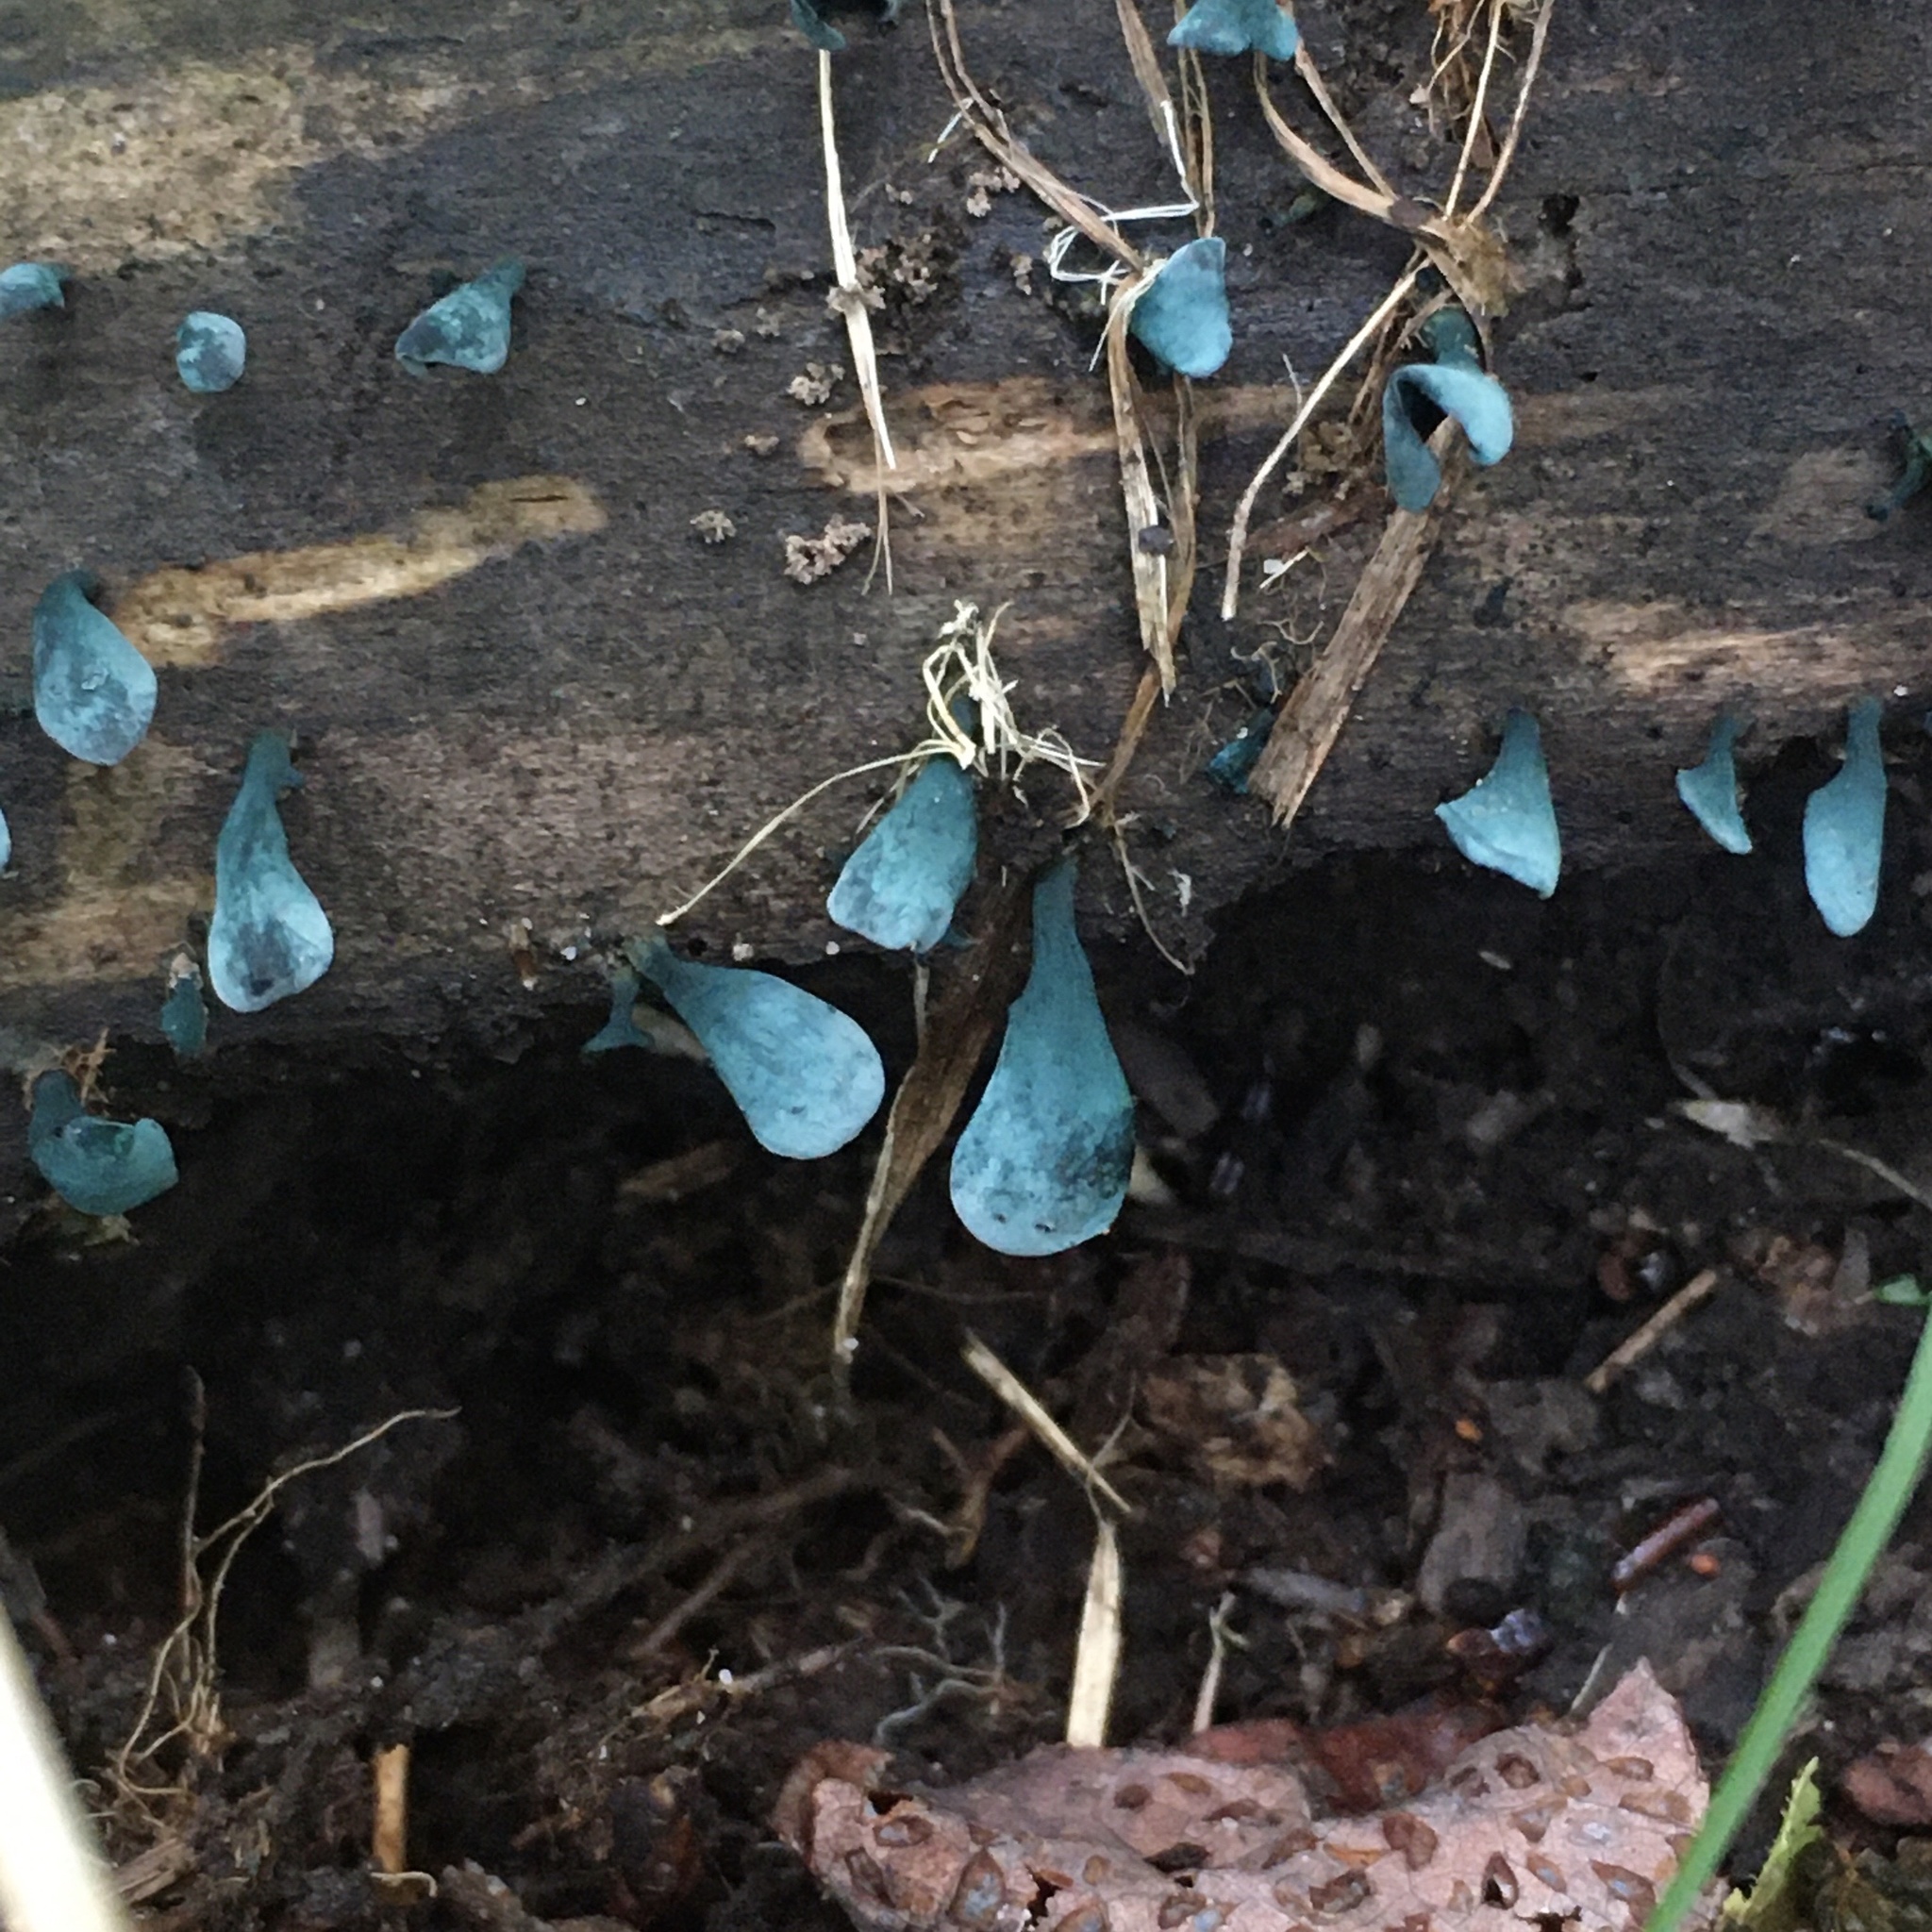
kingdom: Fungi
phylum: Ascomycota
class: Leotiomycetes
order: Helotiales
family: Chlorociboriaceae
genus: Chlorociboria
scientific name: Chlorociboria aeruginascens
